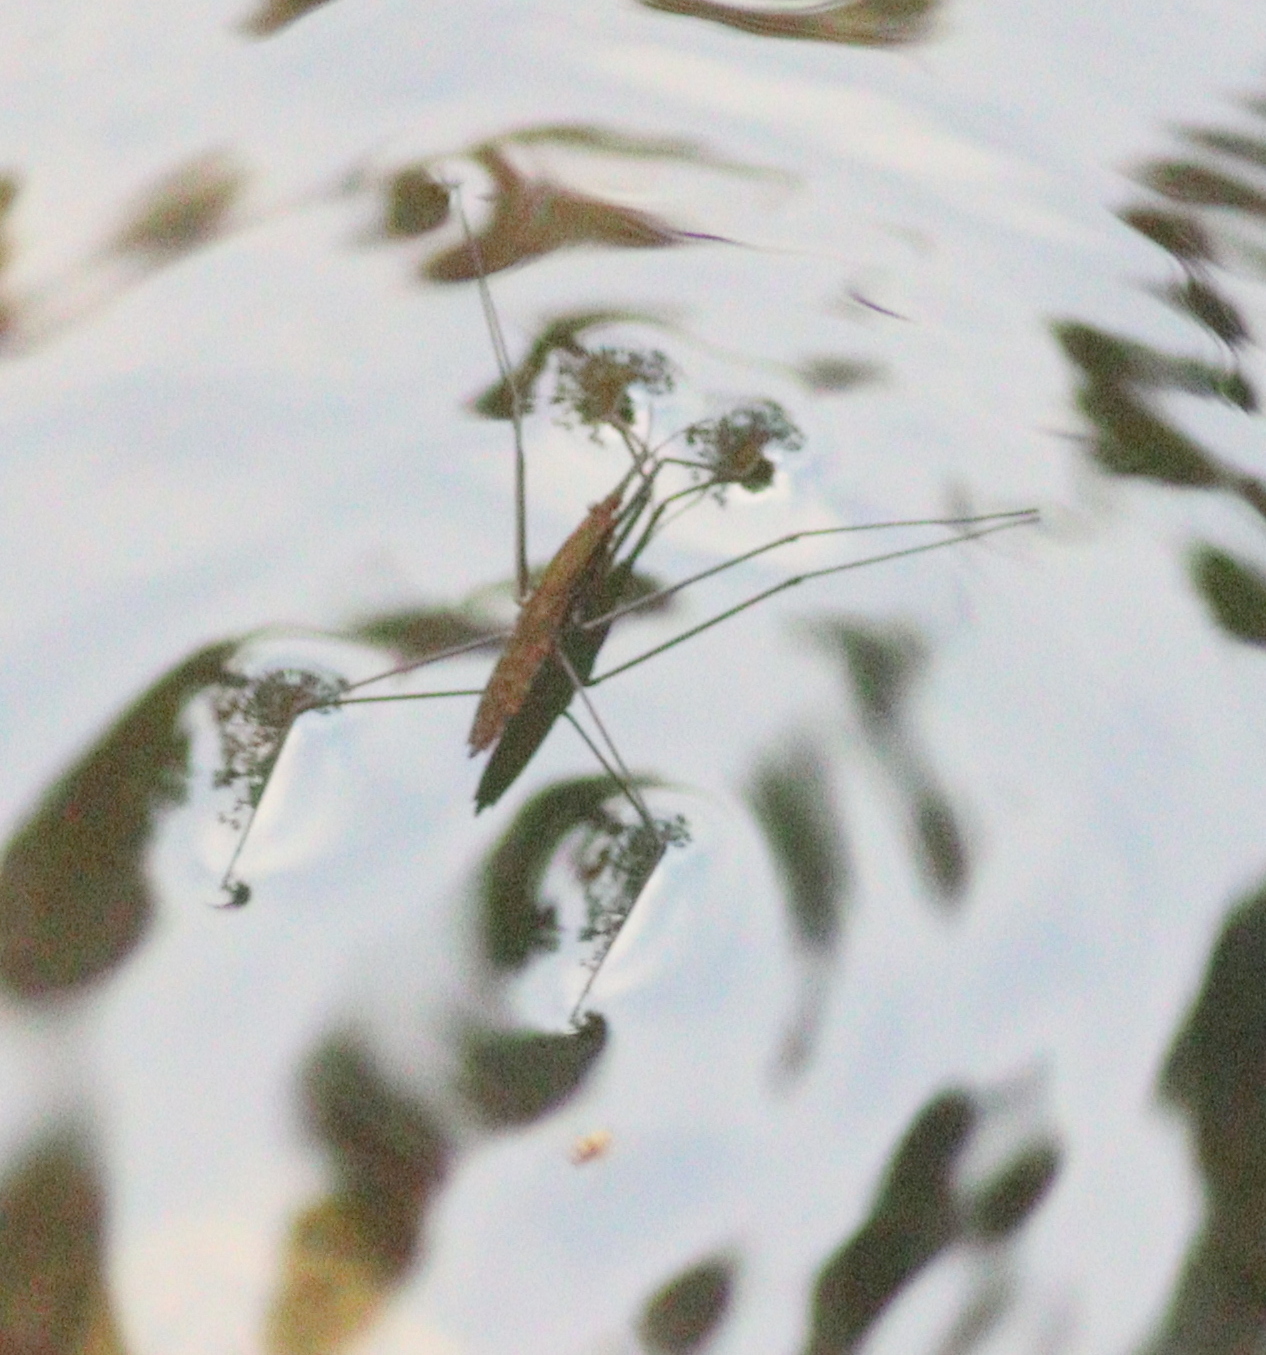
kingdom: Animalia
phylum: Arthropoda
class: Insecta
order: Hemiptera
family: Gerridae
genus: Aquarius
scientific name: Aquarius najas
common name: River skater
